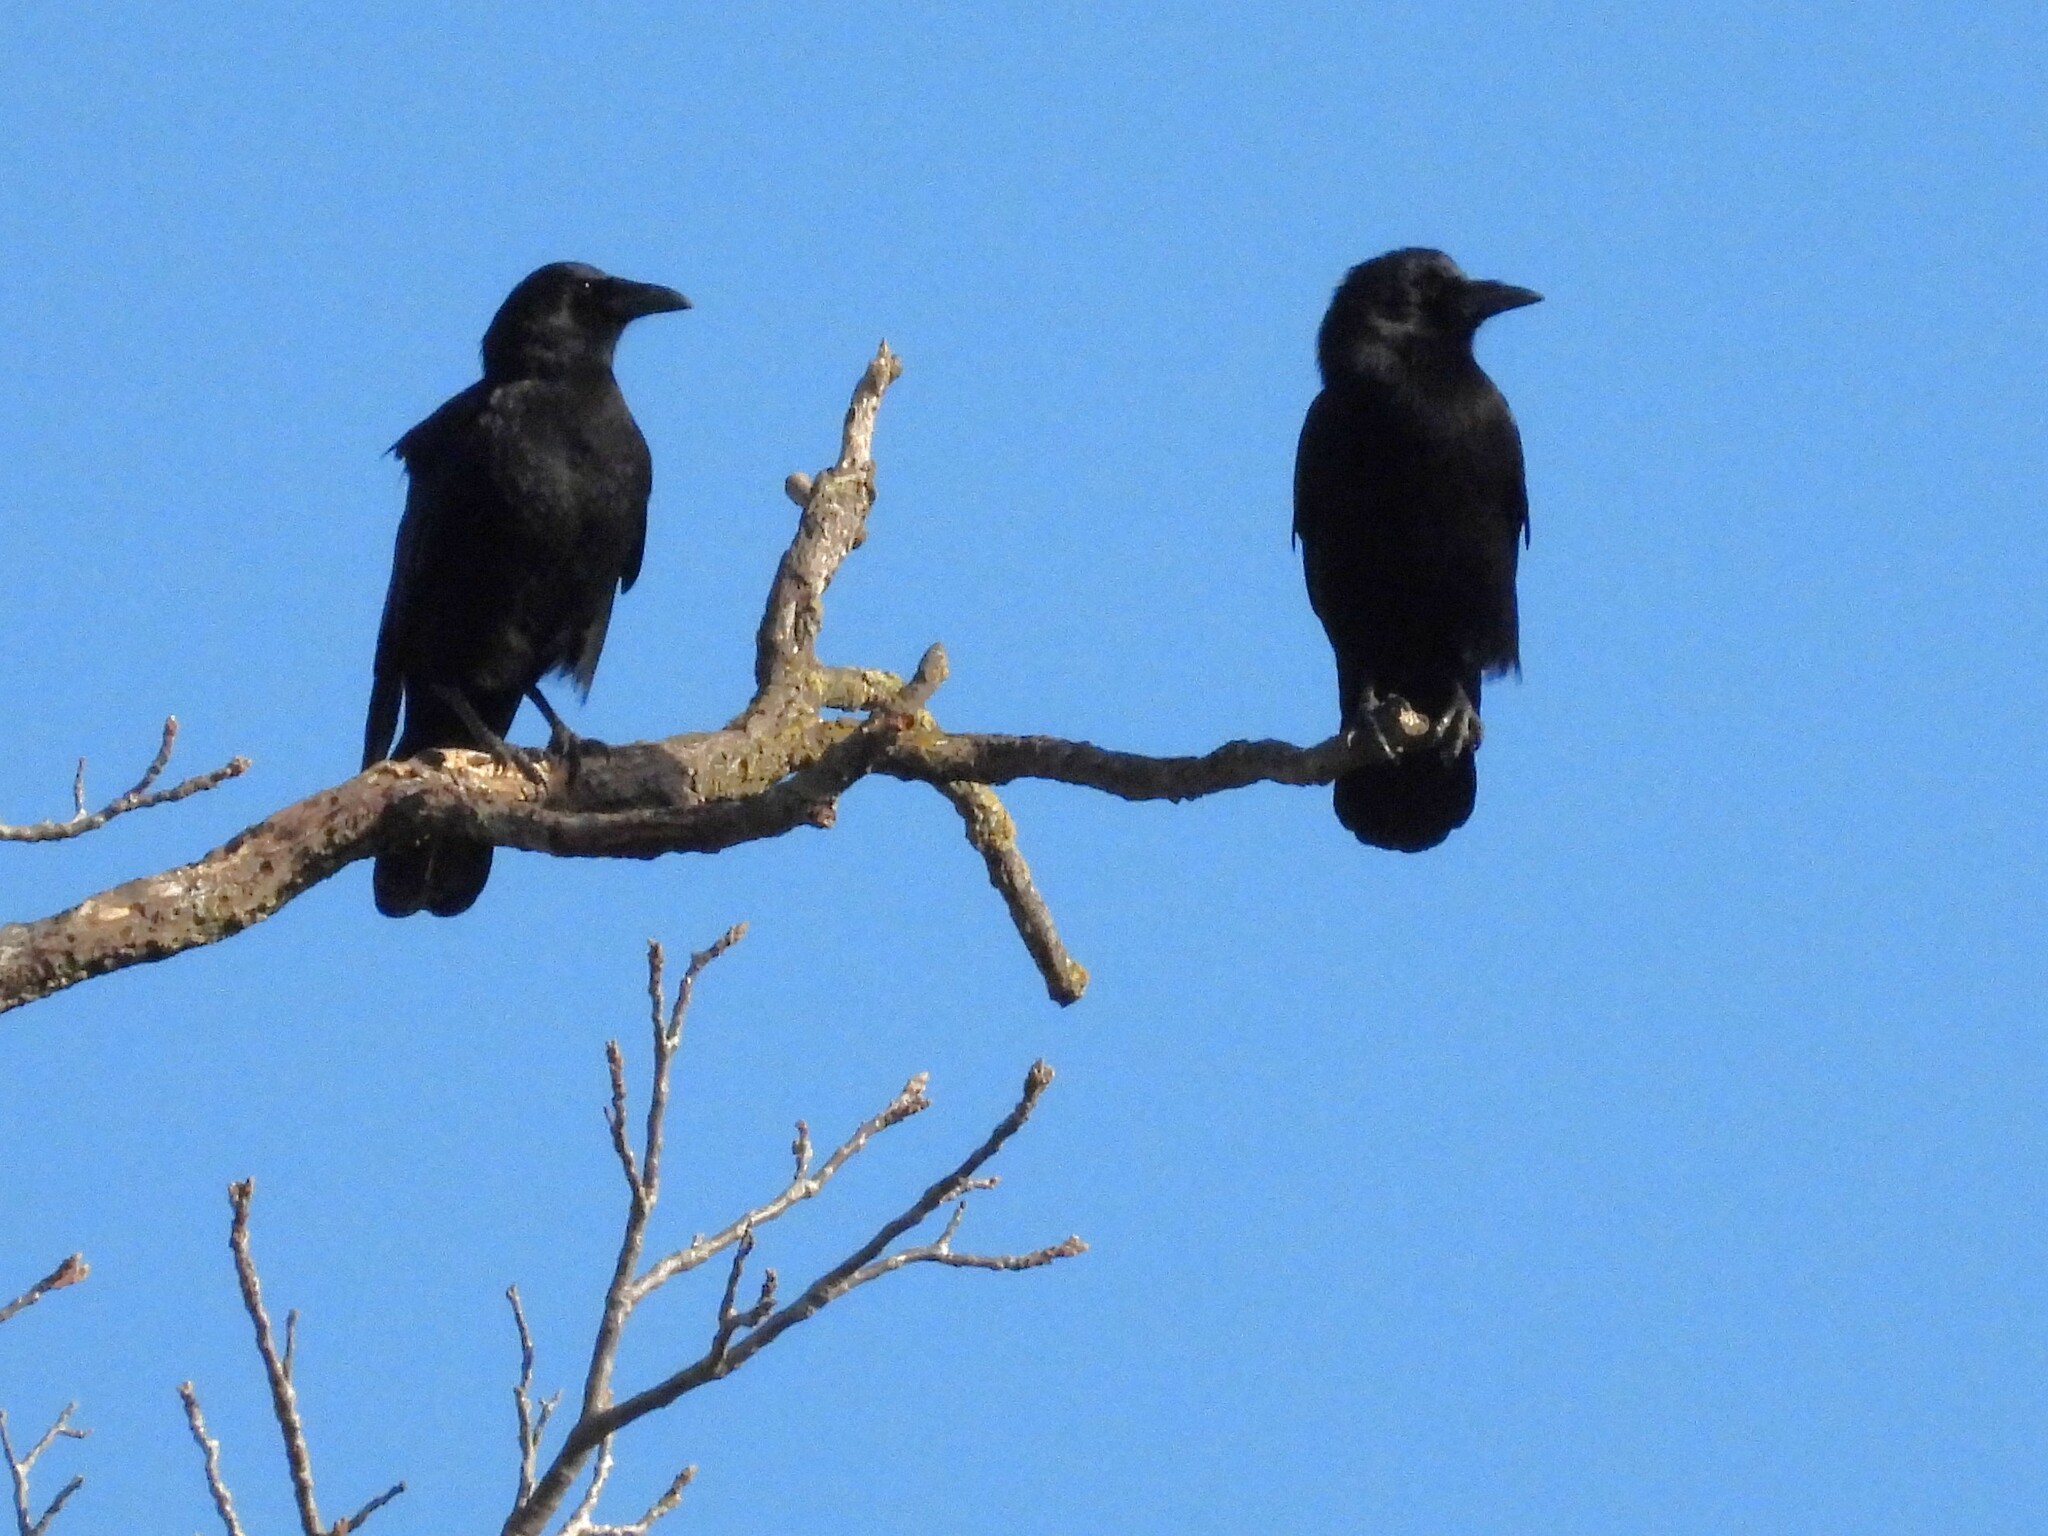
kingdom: Animalia
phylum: Chordata
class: Aves
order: Passeriformes
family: Corvidae
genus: Corvus
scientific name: Corvus brachyrhynchos
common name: American crow
